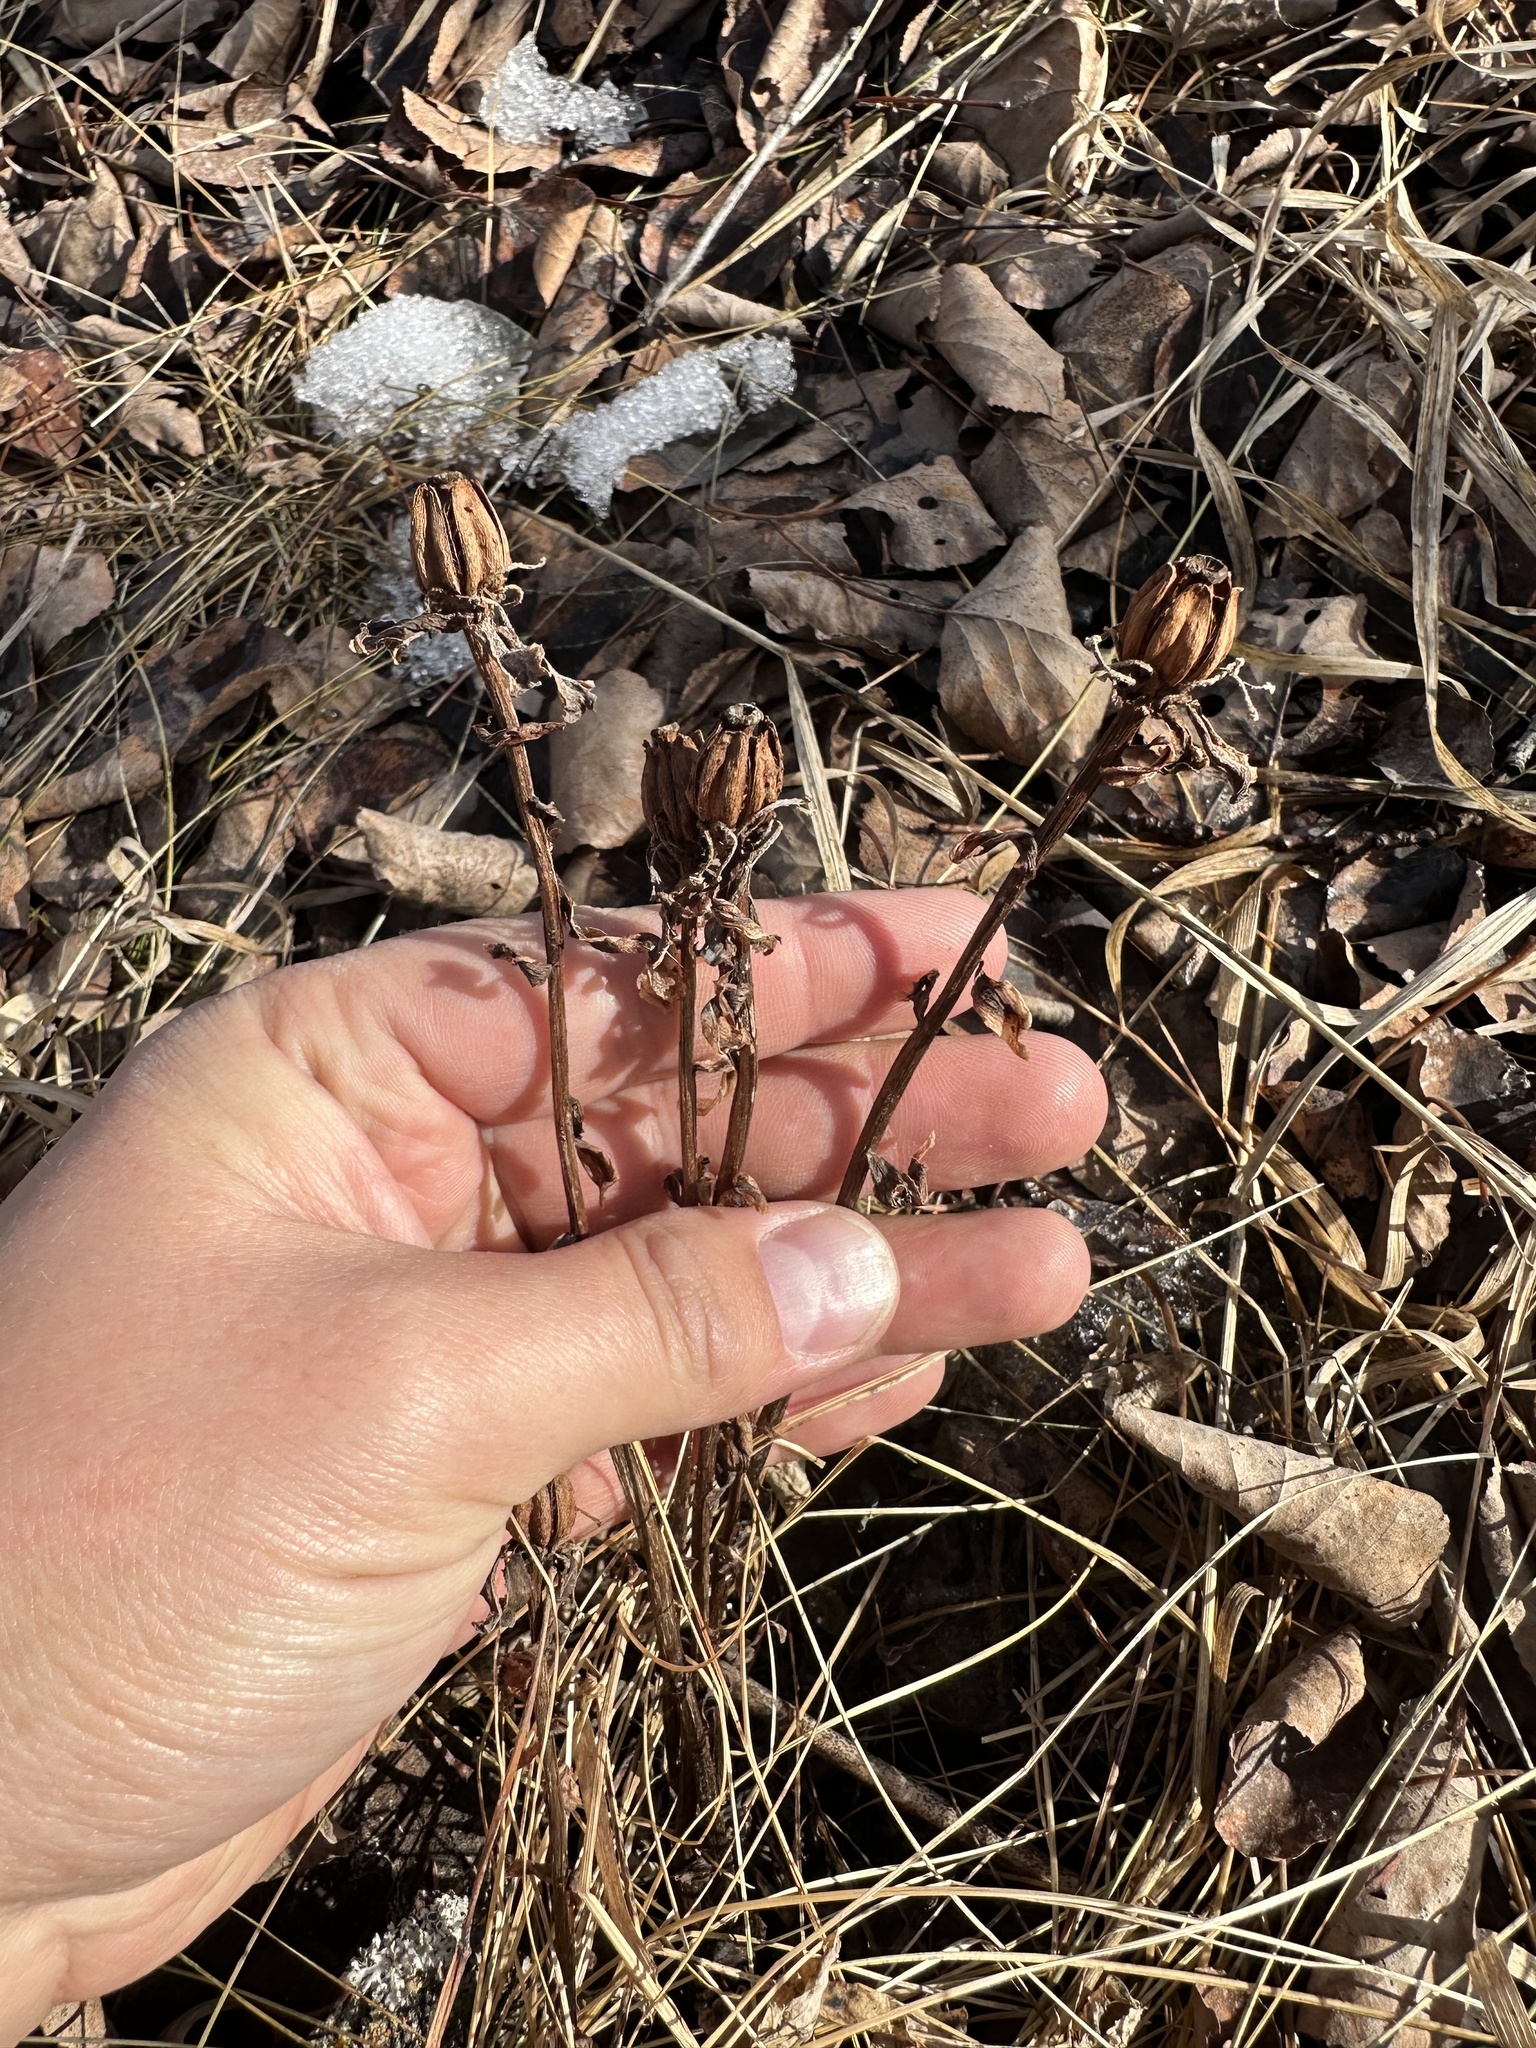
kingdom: Plantae
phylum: Tracheophyta
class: Magnoliopsida
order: Ericales
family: Ericaceae
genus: Monotropa
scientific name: Monotropa uniflora
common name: Convulsion root
